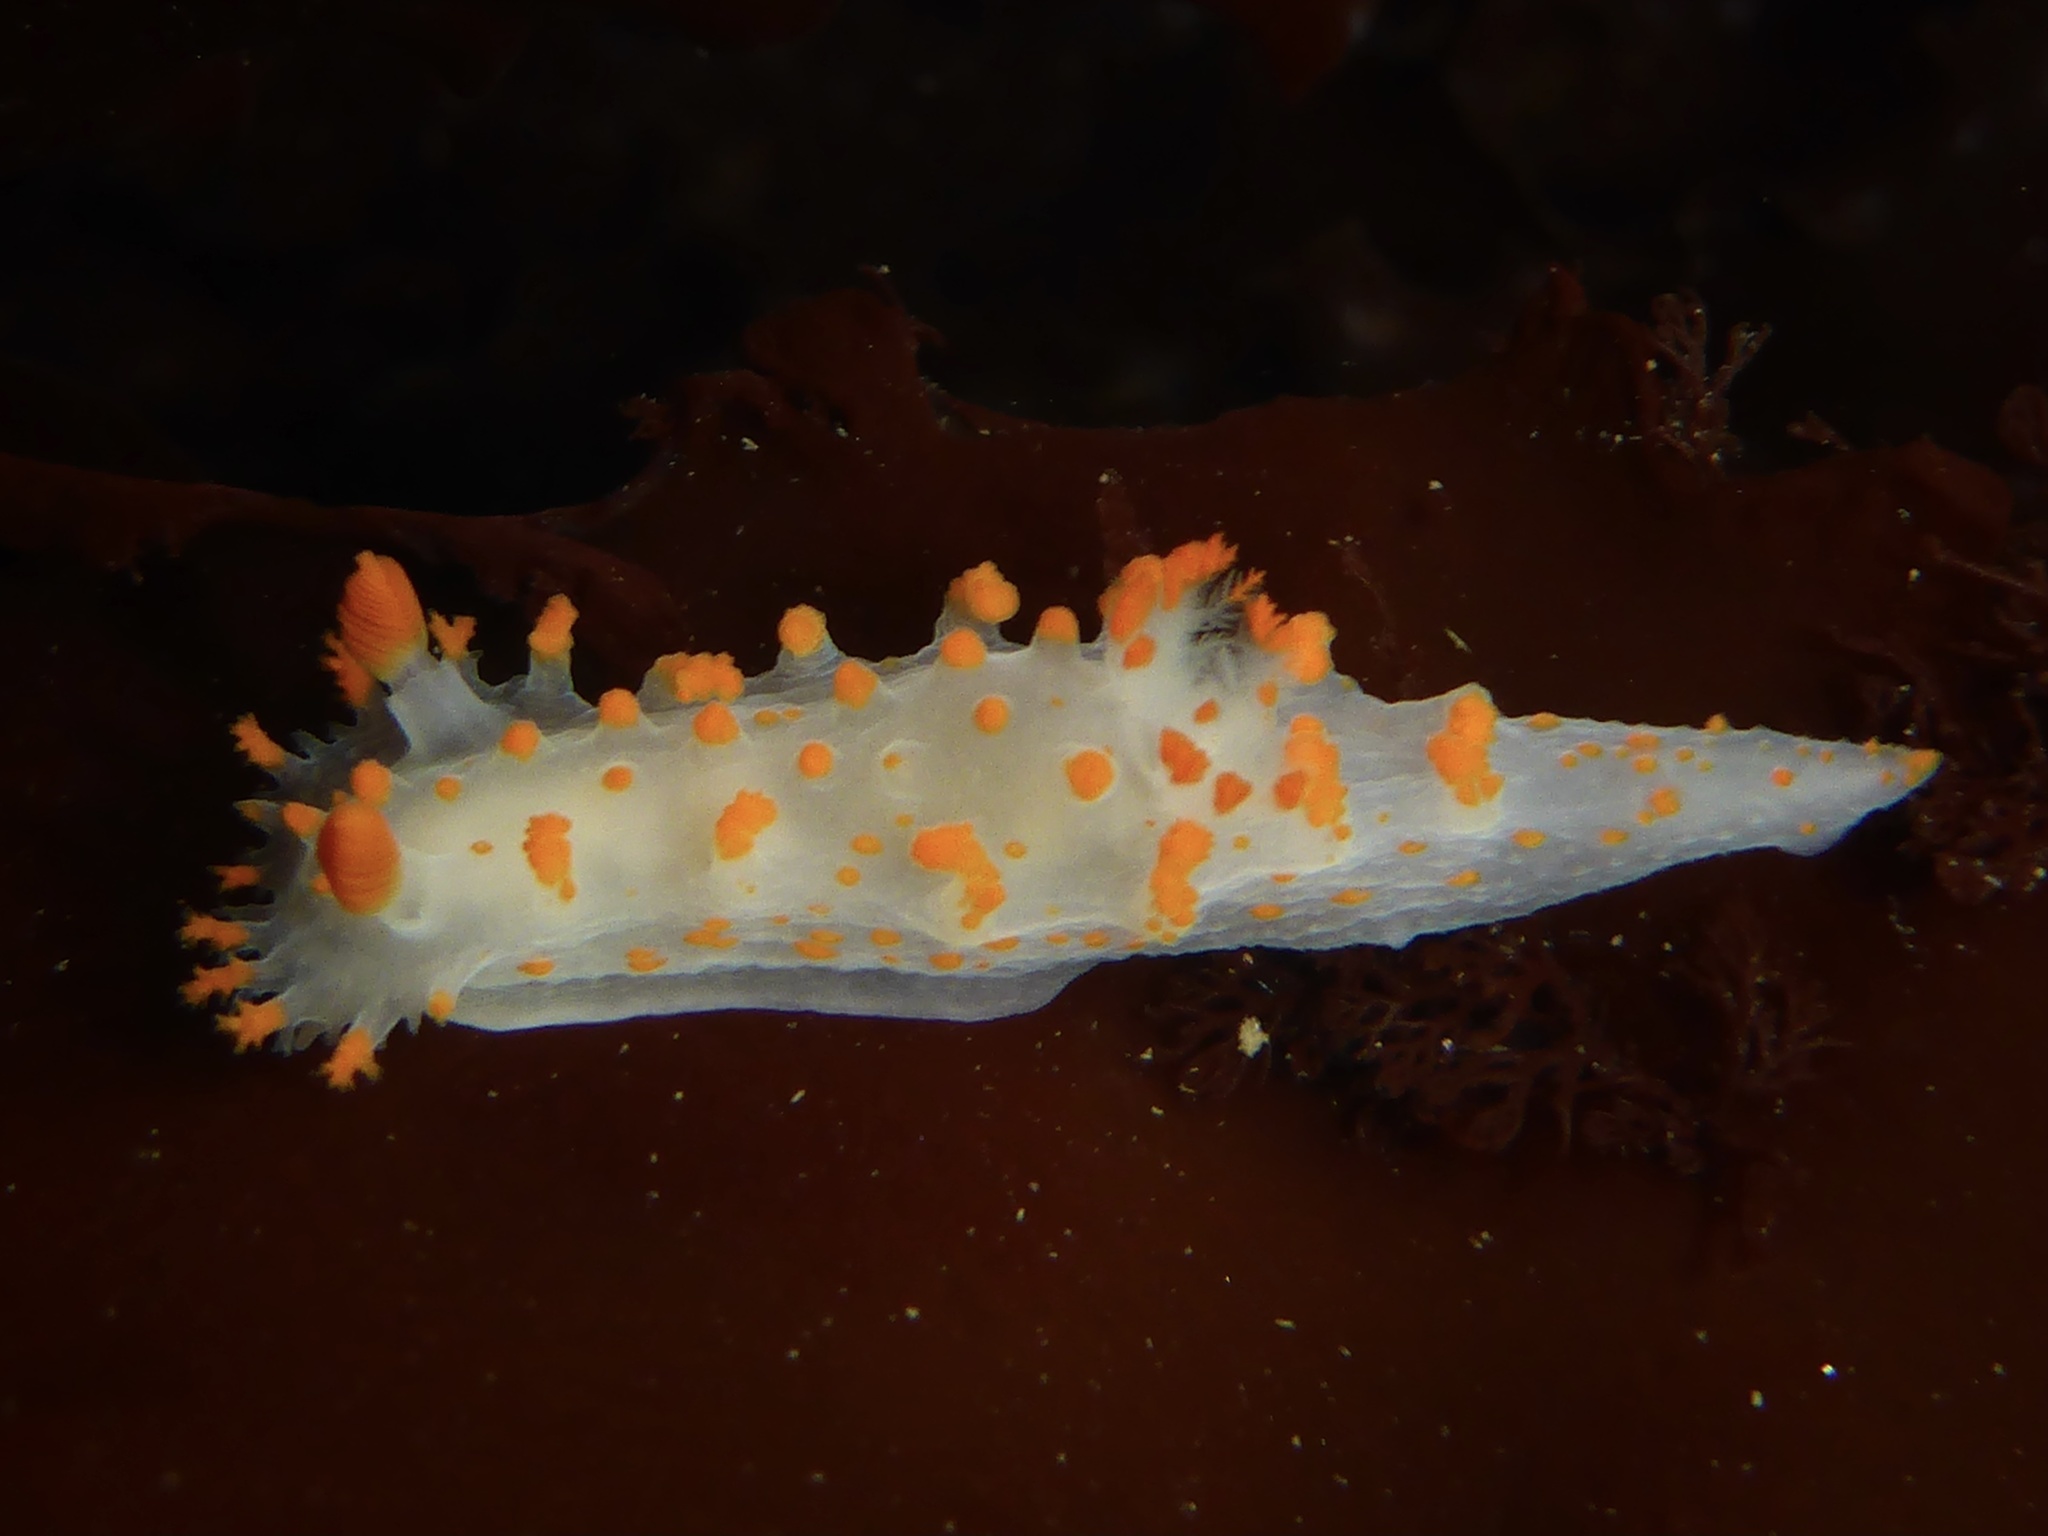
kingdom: Animalia
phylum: Mollusca
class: Gastropoda
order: Nudibranchia
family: Polyceridae
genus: Triopha
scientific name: Triopha catalinae
